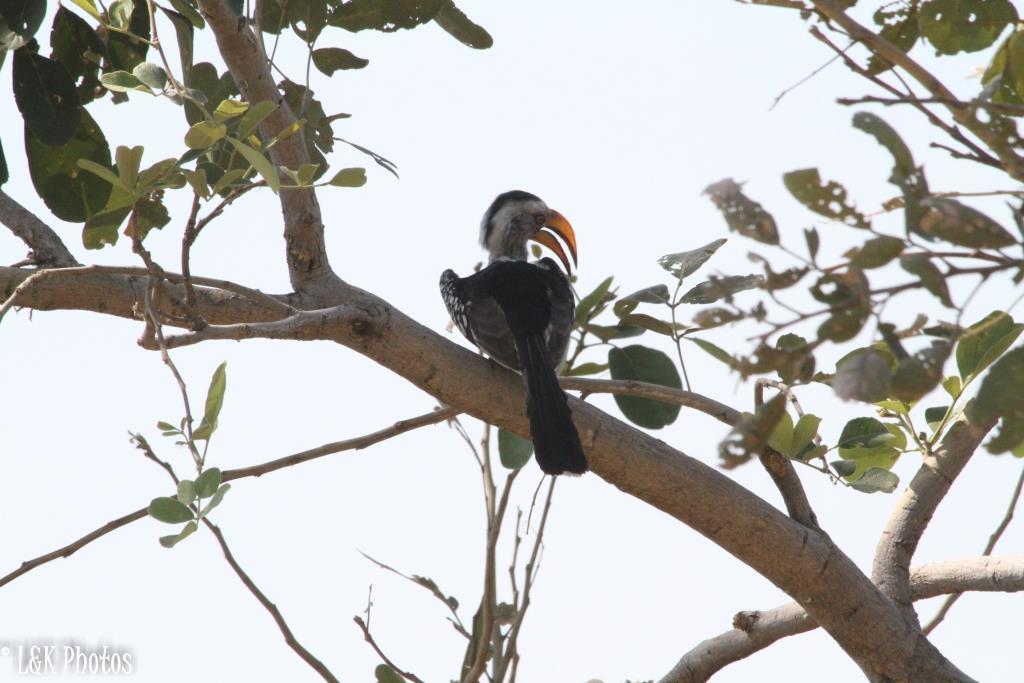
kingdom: Animalia
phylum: Chordata
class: Aves
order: Bucerotiformes
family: Bucerotidae
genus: Tockus
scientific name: Tockus leucomelas
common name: Southern yellow-billed hornbill
